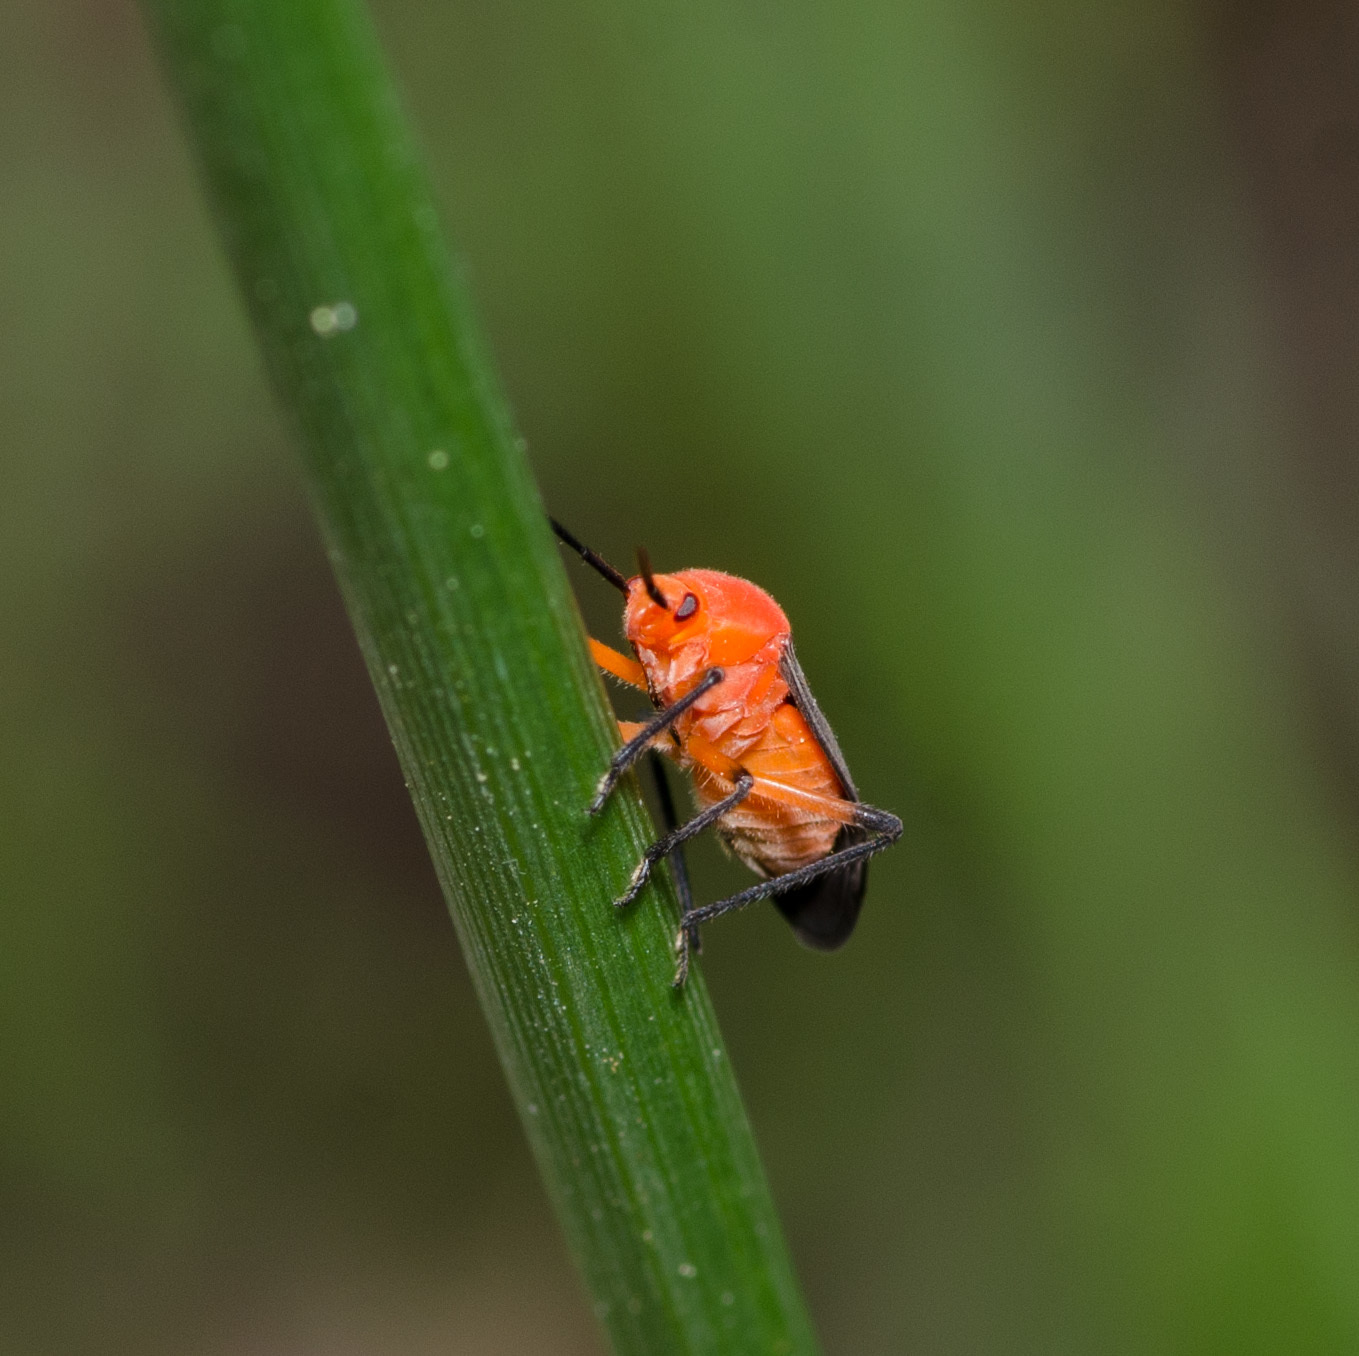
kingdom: Animalia
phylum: Arthropoda
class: Insecta
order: Hemiptera
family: Miridae
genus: Prepops
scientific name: Prepops atripennis
